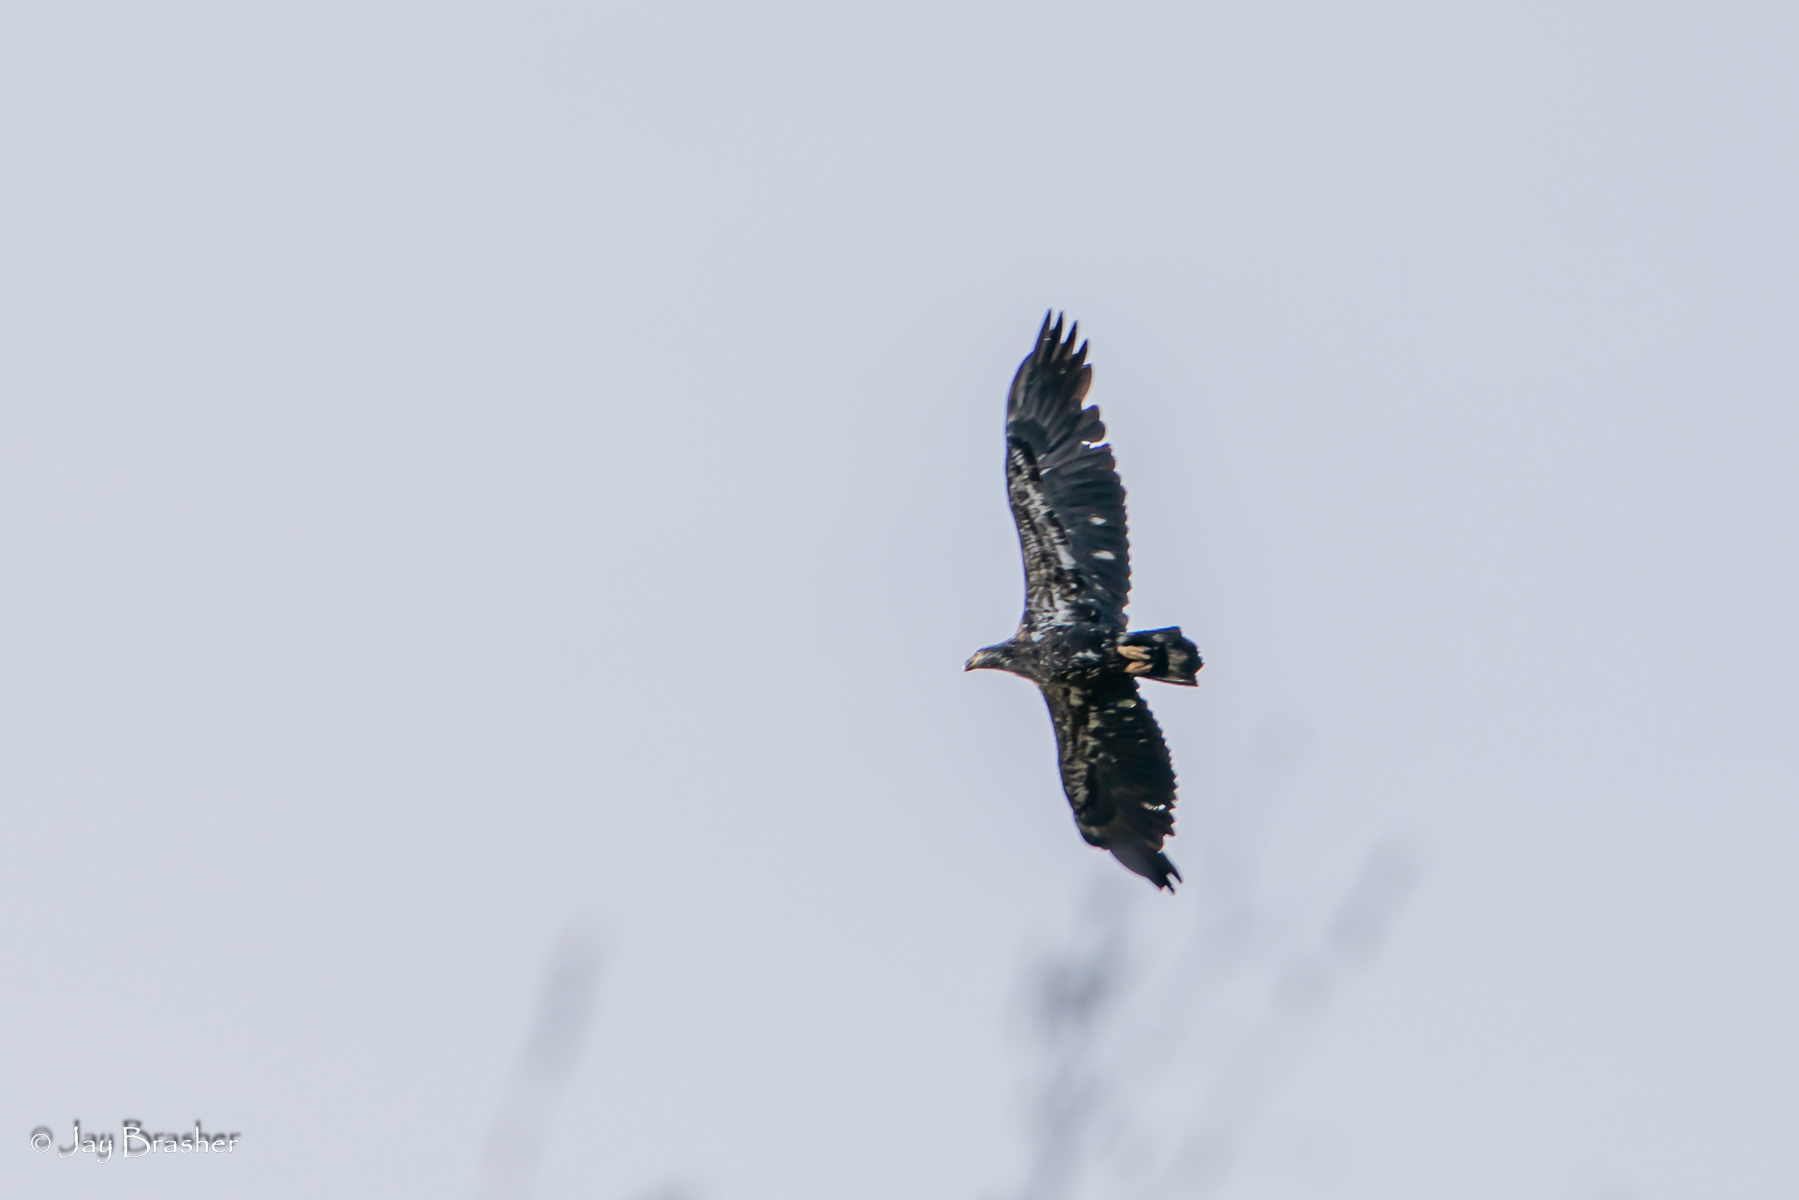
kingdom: Animalia
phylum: Chordata
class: Aves
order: Accipitriformes
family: Accipitridae
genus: Haliaeetus
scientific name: Haliaeetus leucocephalus
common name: Bald eagle
